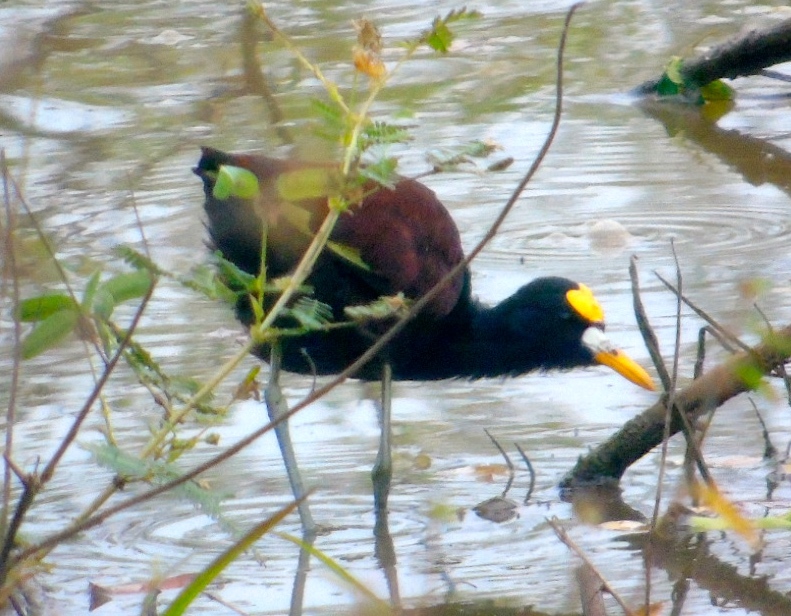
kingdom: Animalia
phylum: Chordata
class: Aves
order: Charadriiformes
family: Jacanidae
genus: Jacana
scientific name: Jacana spinosa
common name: Northern jacana
